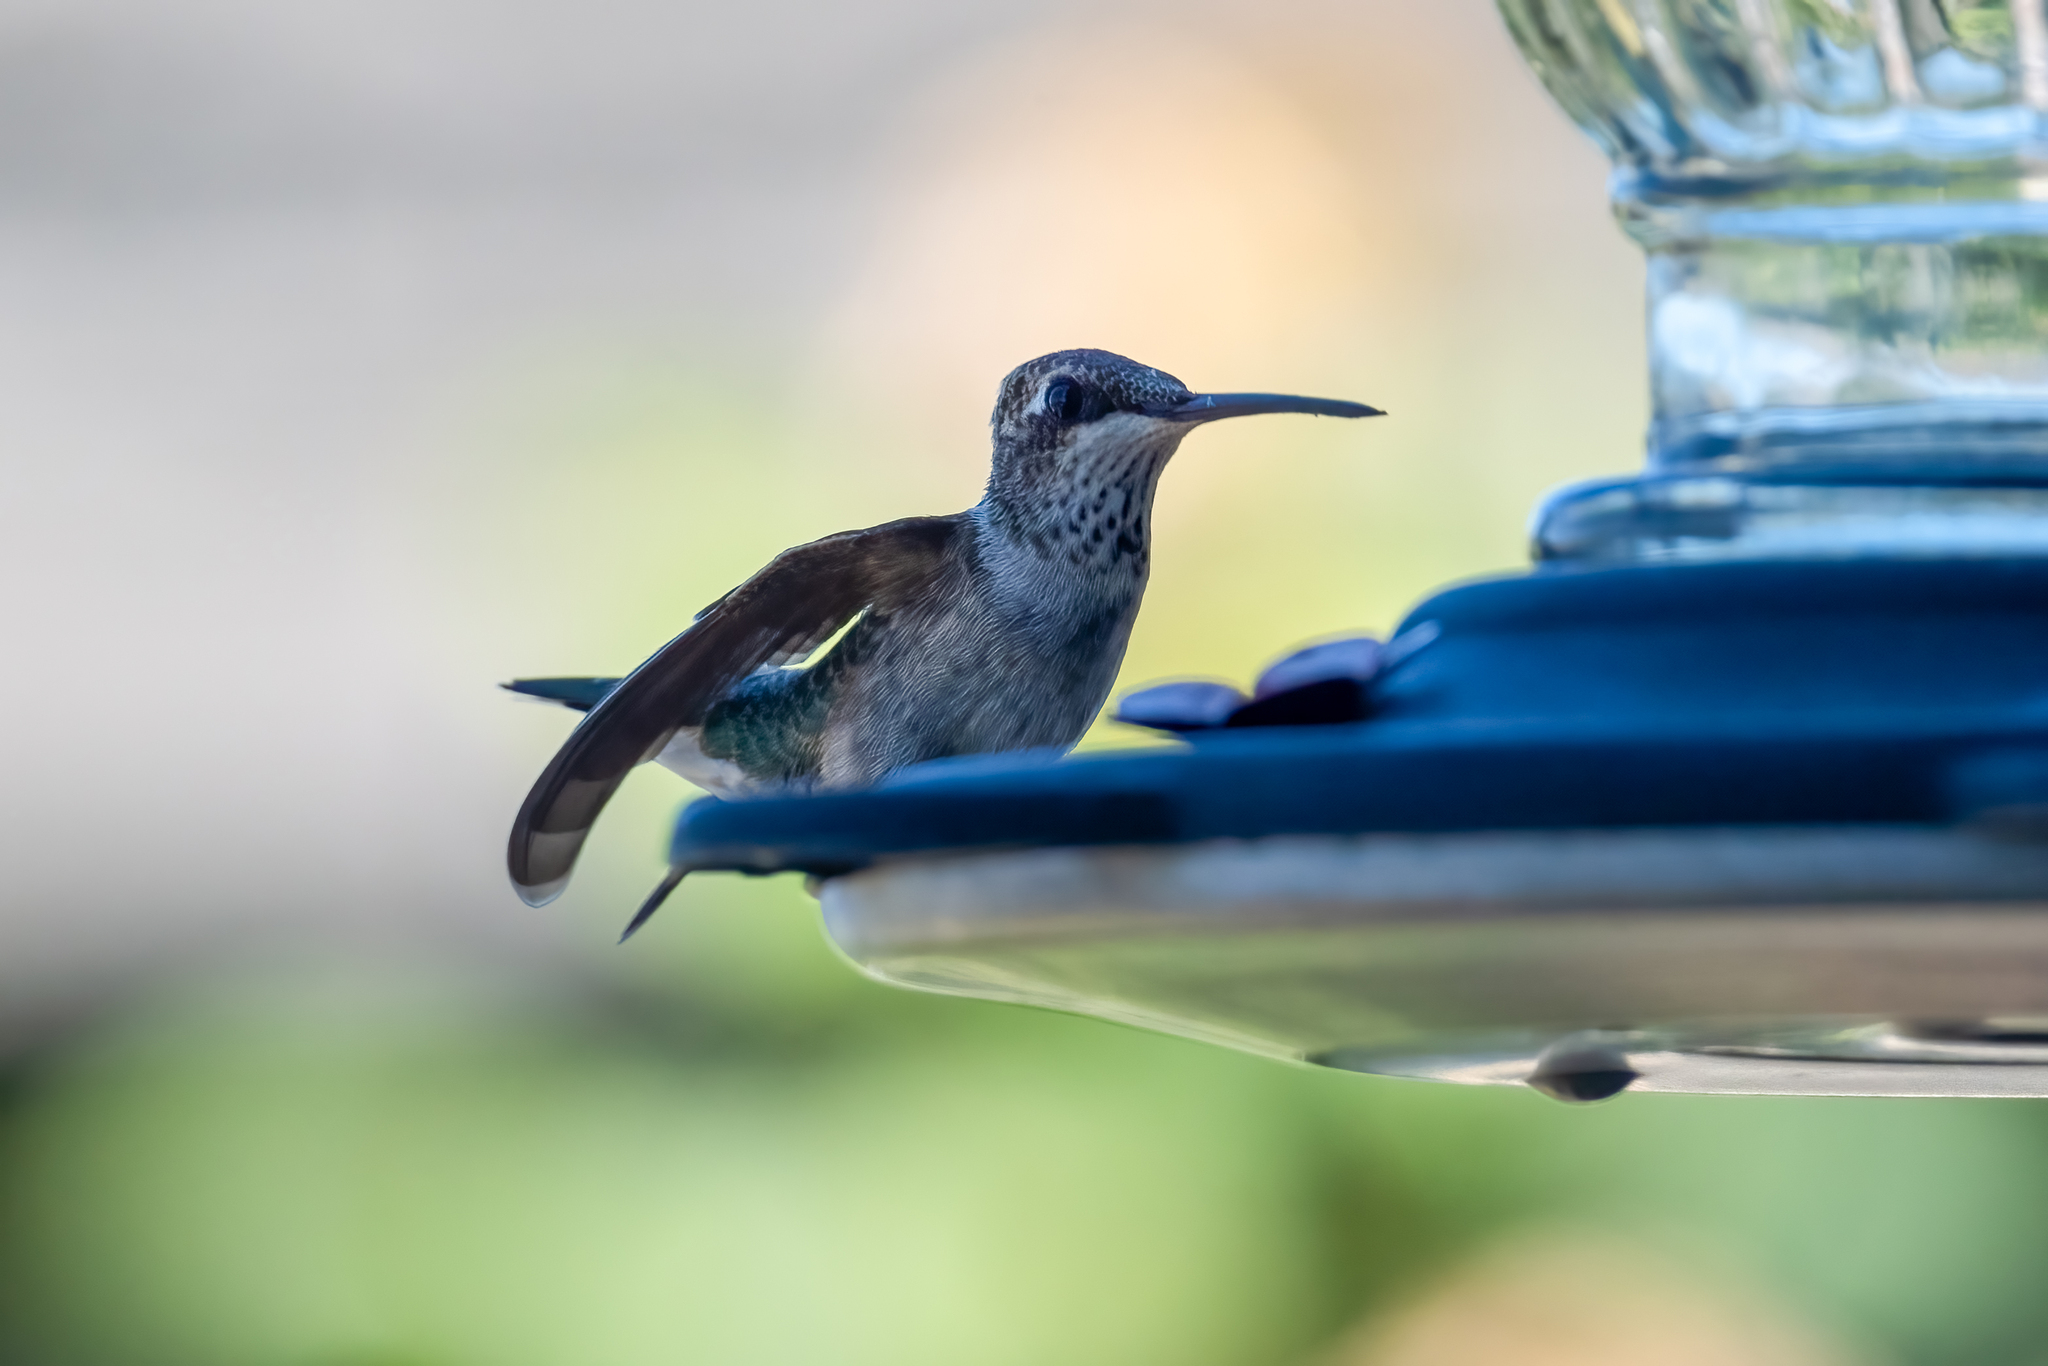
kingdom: Animalia
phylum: Chordata
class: Aves
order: Apodiformes
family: Trochilidae
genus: Archilochus
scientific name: Archilochus alexandri
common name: Black-chinned hummingbird
